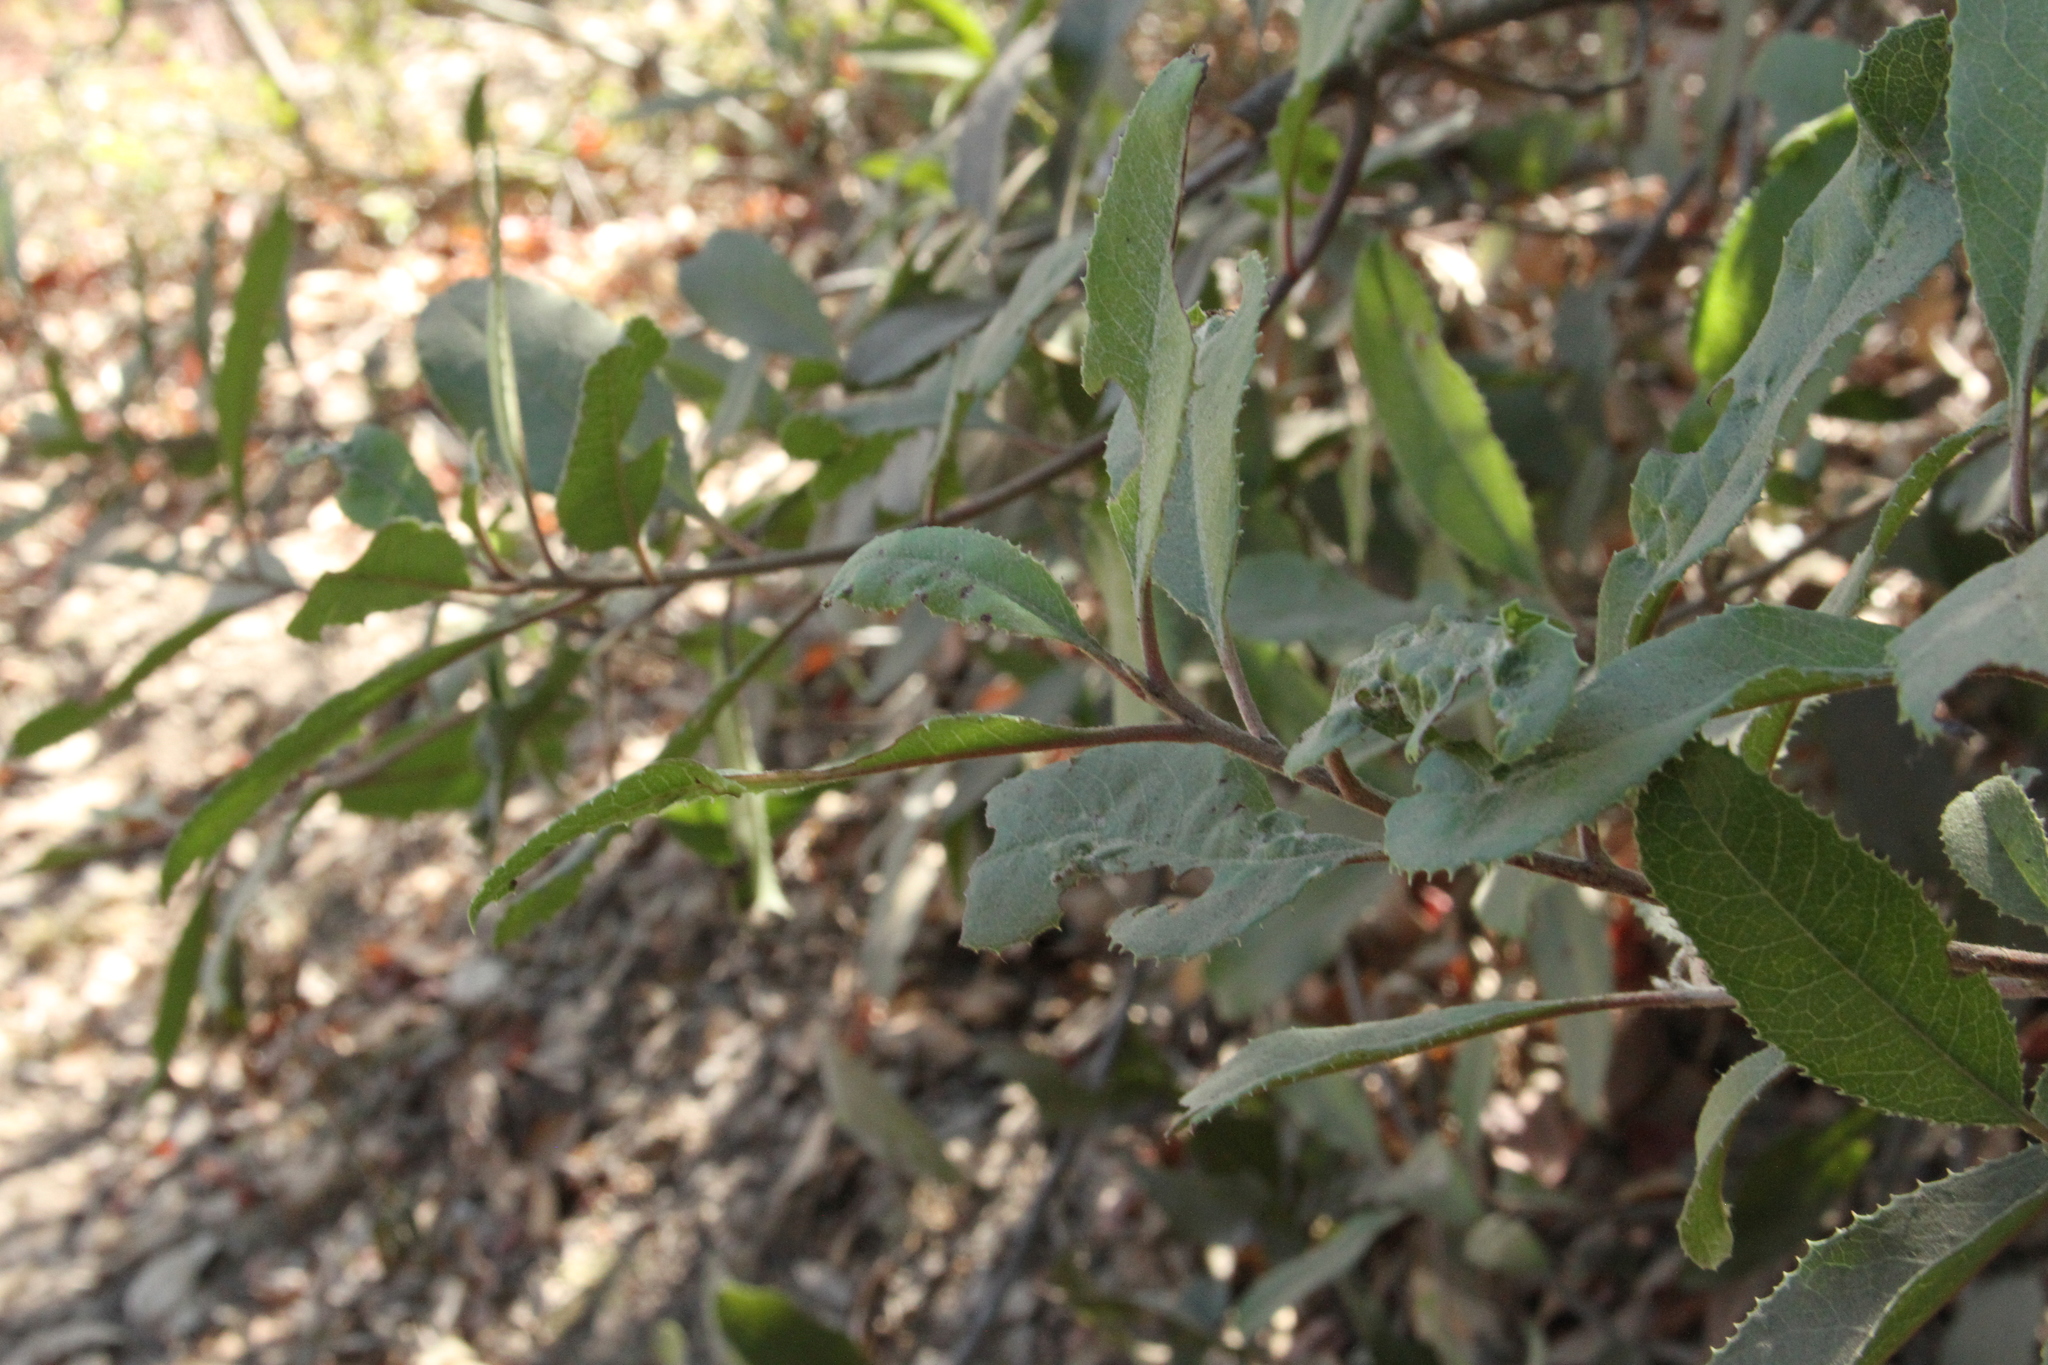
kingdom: Plantae
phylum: Tracheophyta
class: Magnoliopsida
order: Rosales
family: Rosaceae
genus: Heteromeles
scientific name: Heteromeles arbutifolia
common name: California-holly
